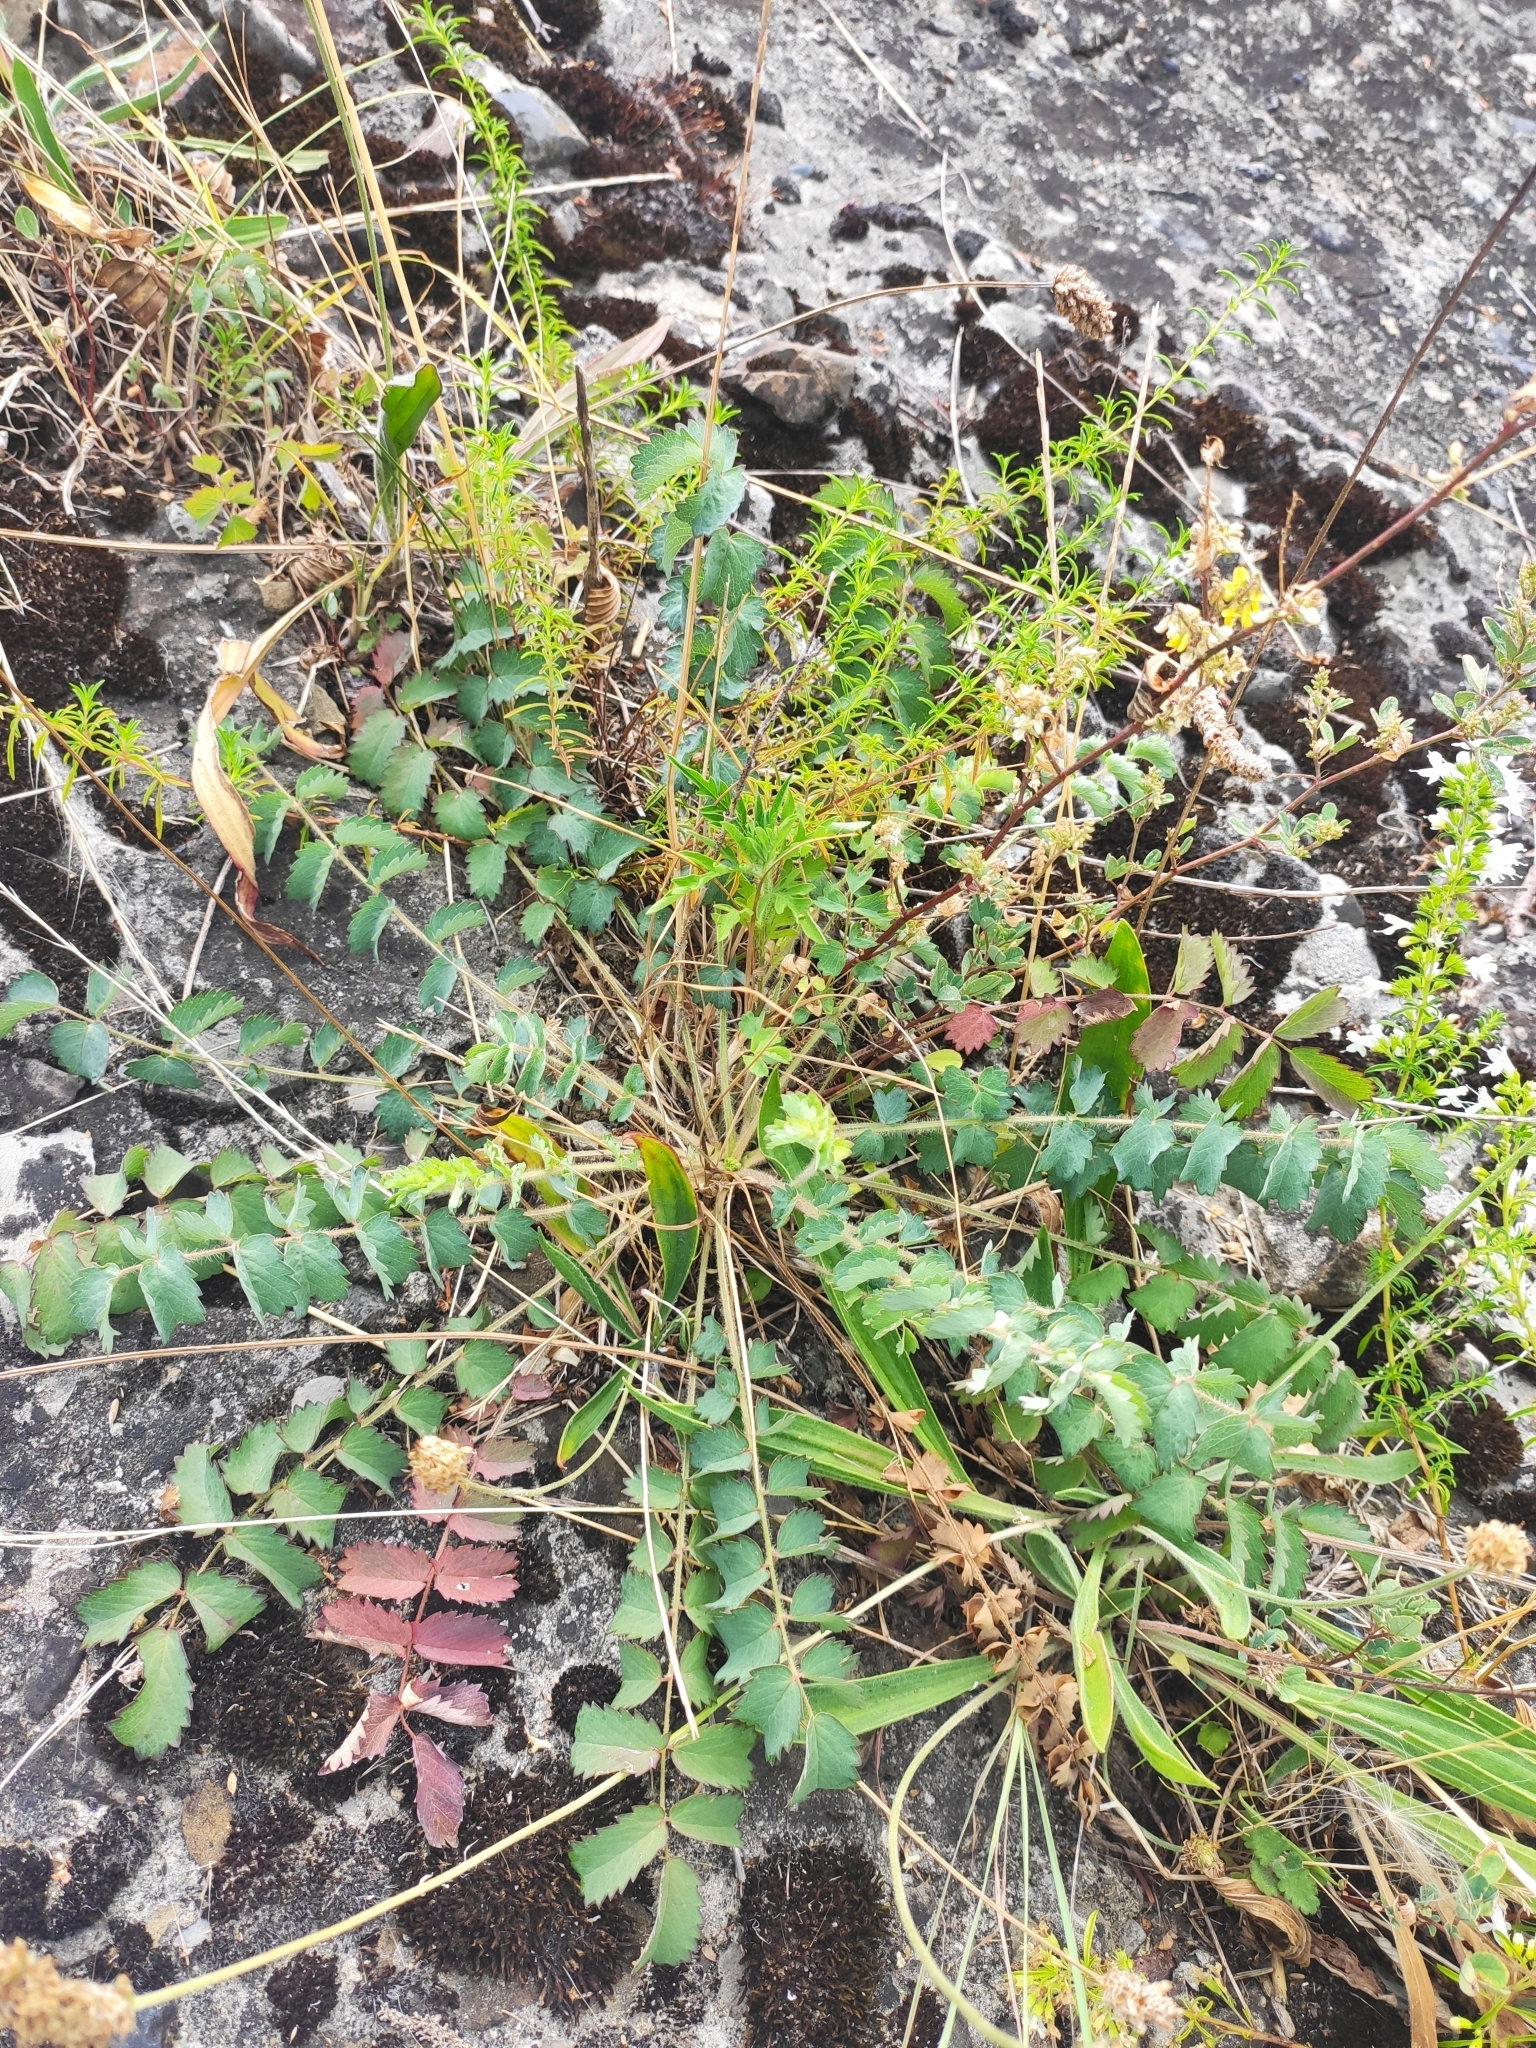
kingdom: Plantae
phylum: Tracheophyta
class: Magnoliopsida
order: Rosales
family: Rosaceae
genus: Poterium
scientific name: Poterium sanguisorba
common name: Salad burnet
